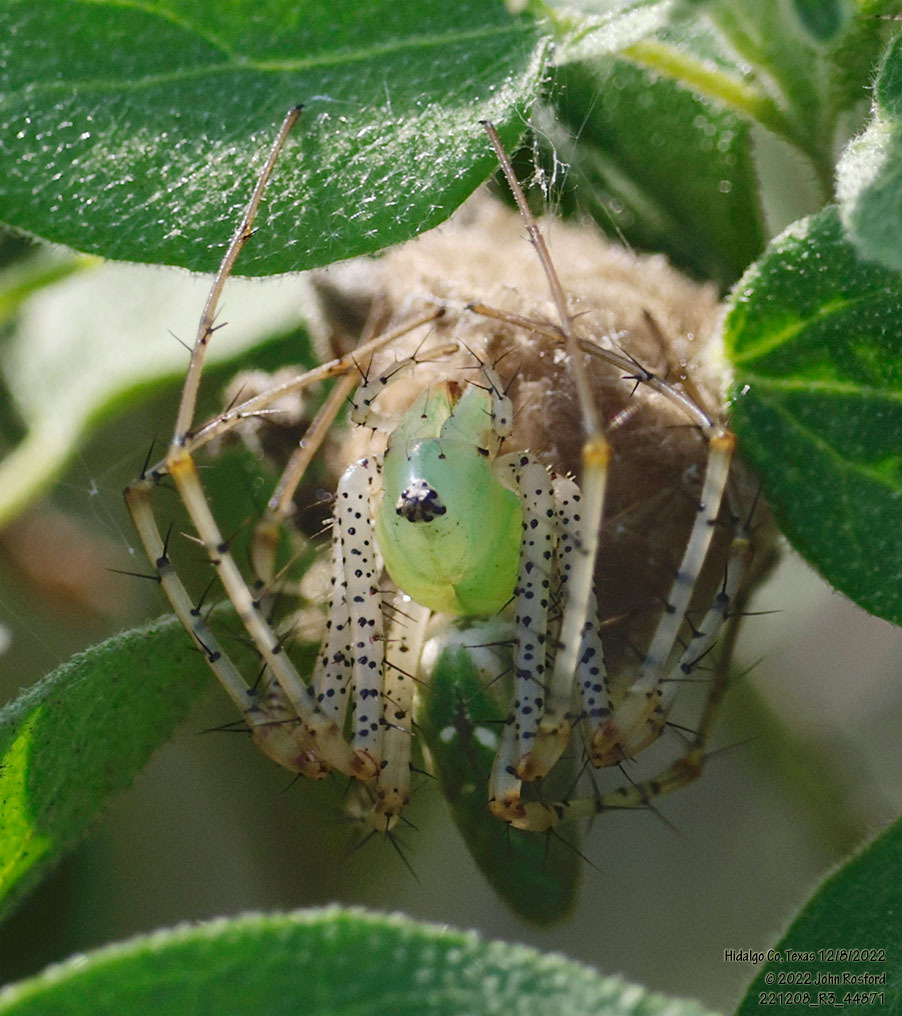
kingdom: Animalia
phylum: Arthropoda
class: Arachnida
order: Araneae
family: Oxyopidae
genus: Peucetia
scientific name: Peucetia viridans
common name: Lynx spiders
